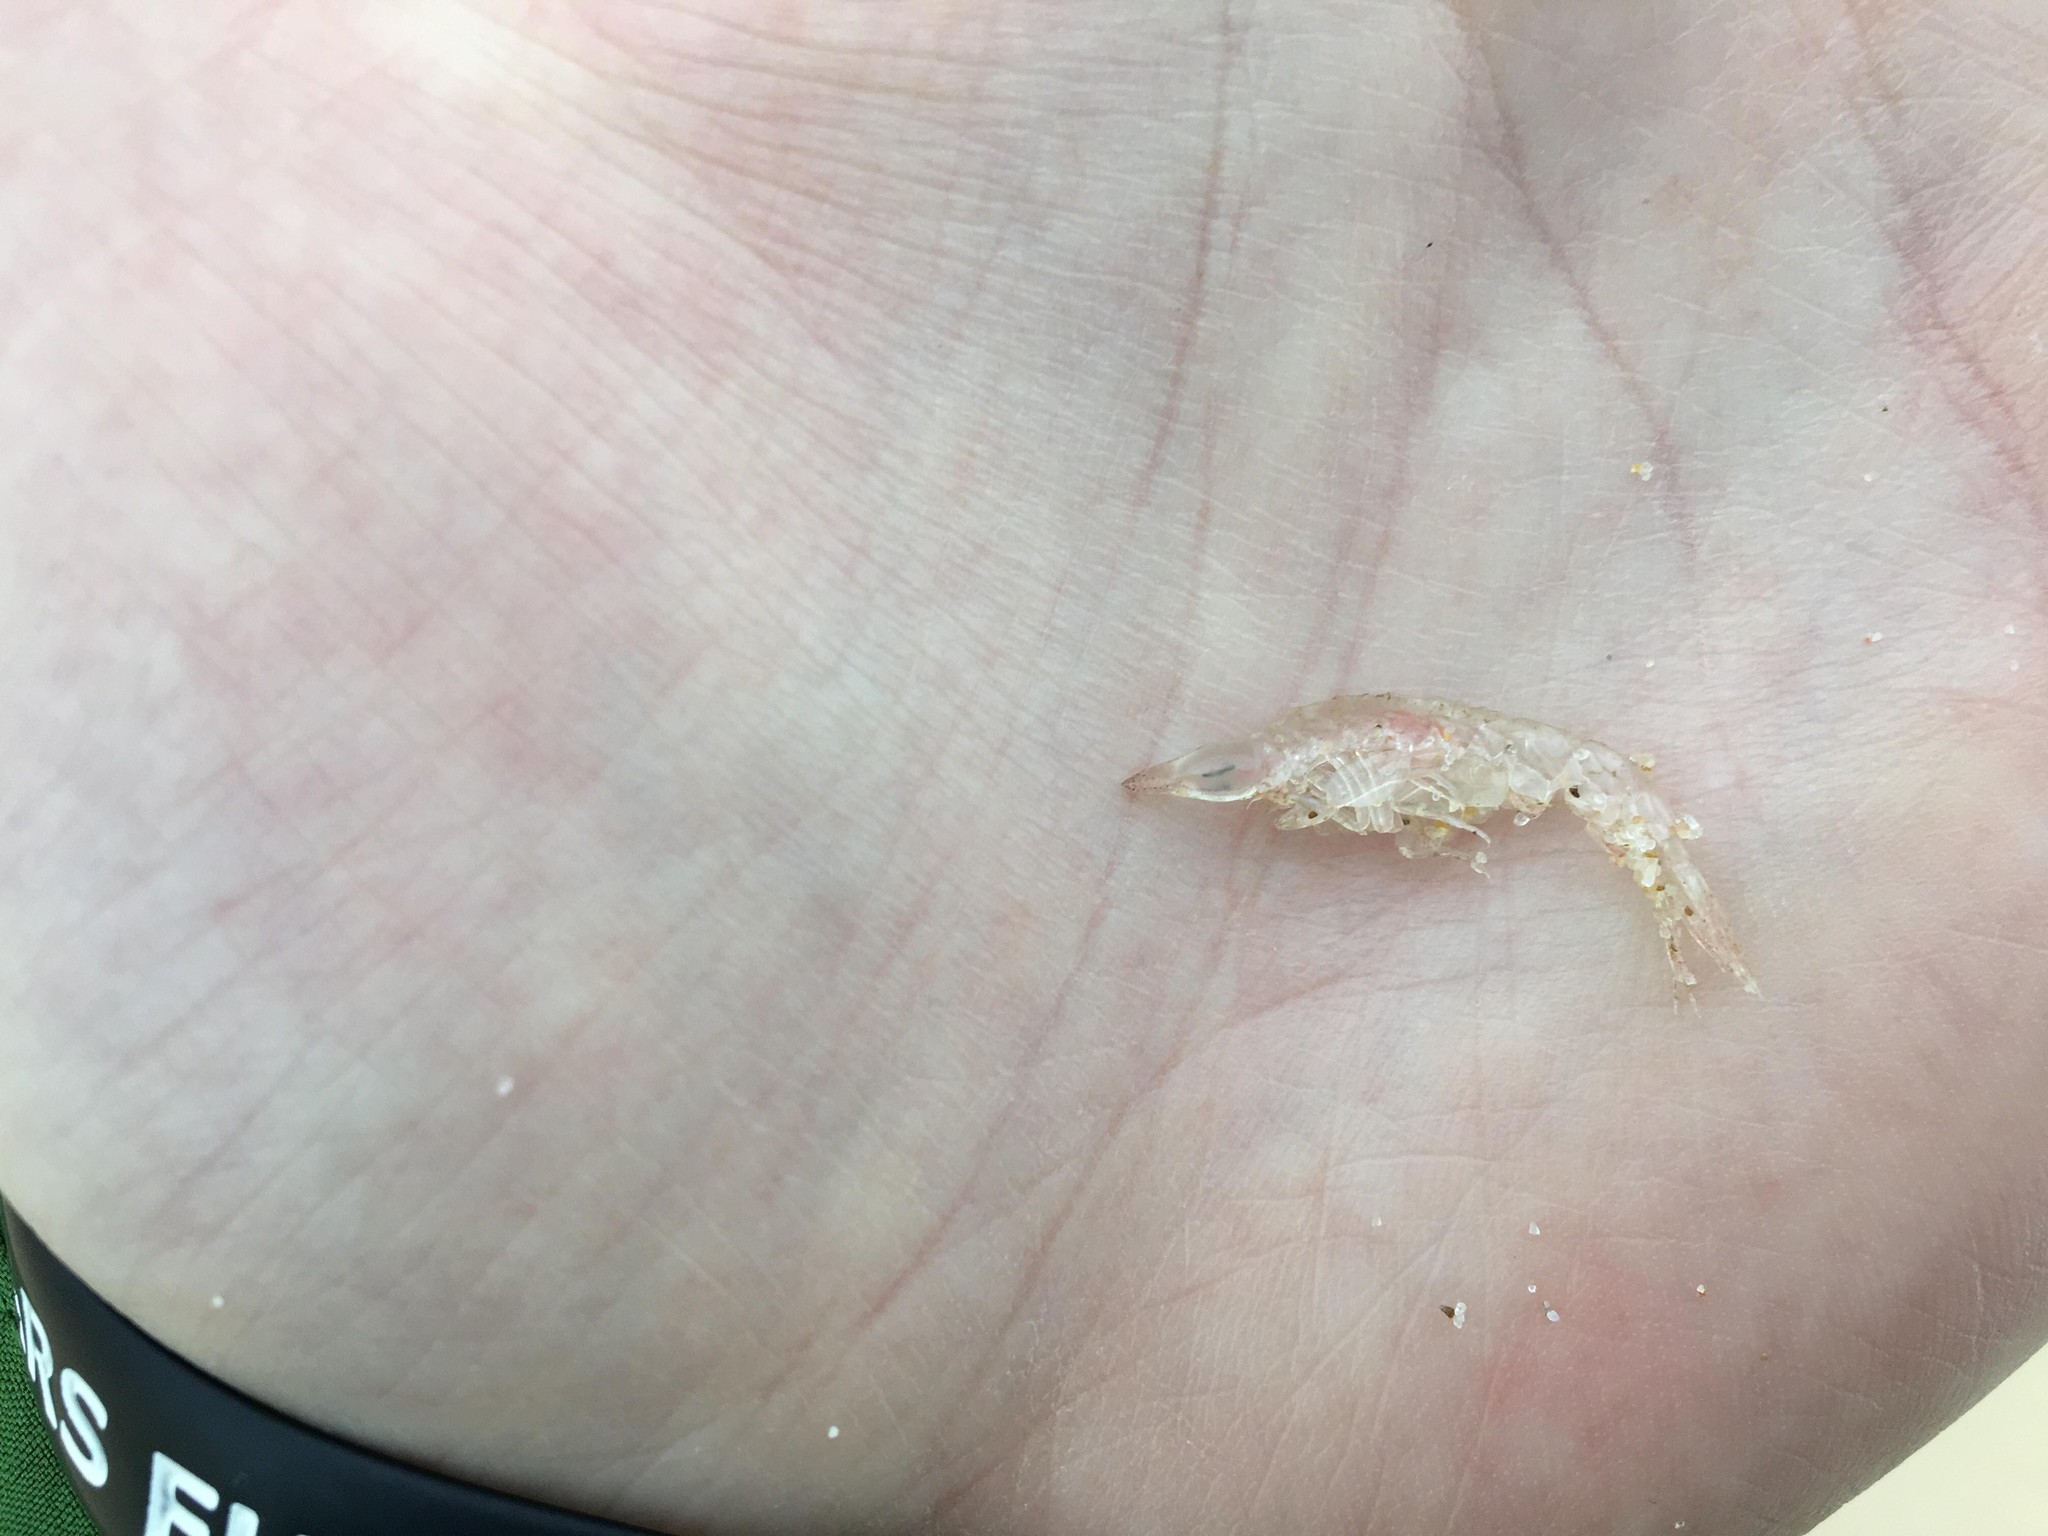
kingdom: Animalia
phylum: Arthropoda
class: Malacostraca
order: Amphipoda
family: Oxycephalidae
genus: Oxycephalus
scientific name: Oxycephalus latirostris
